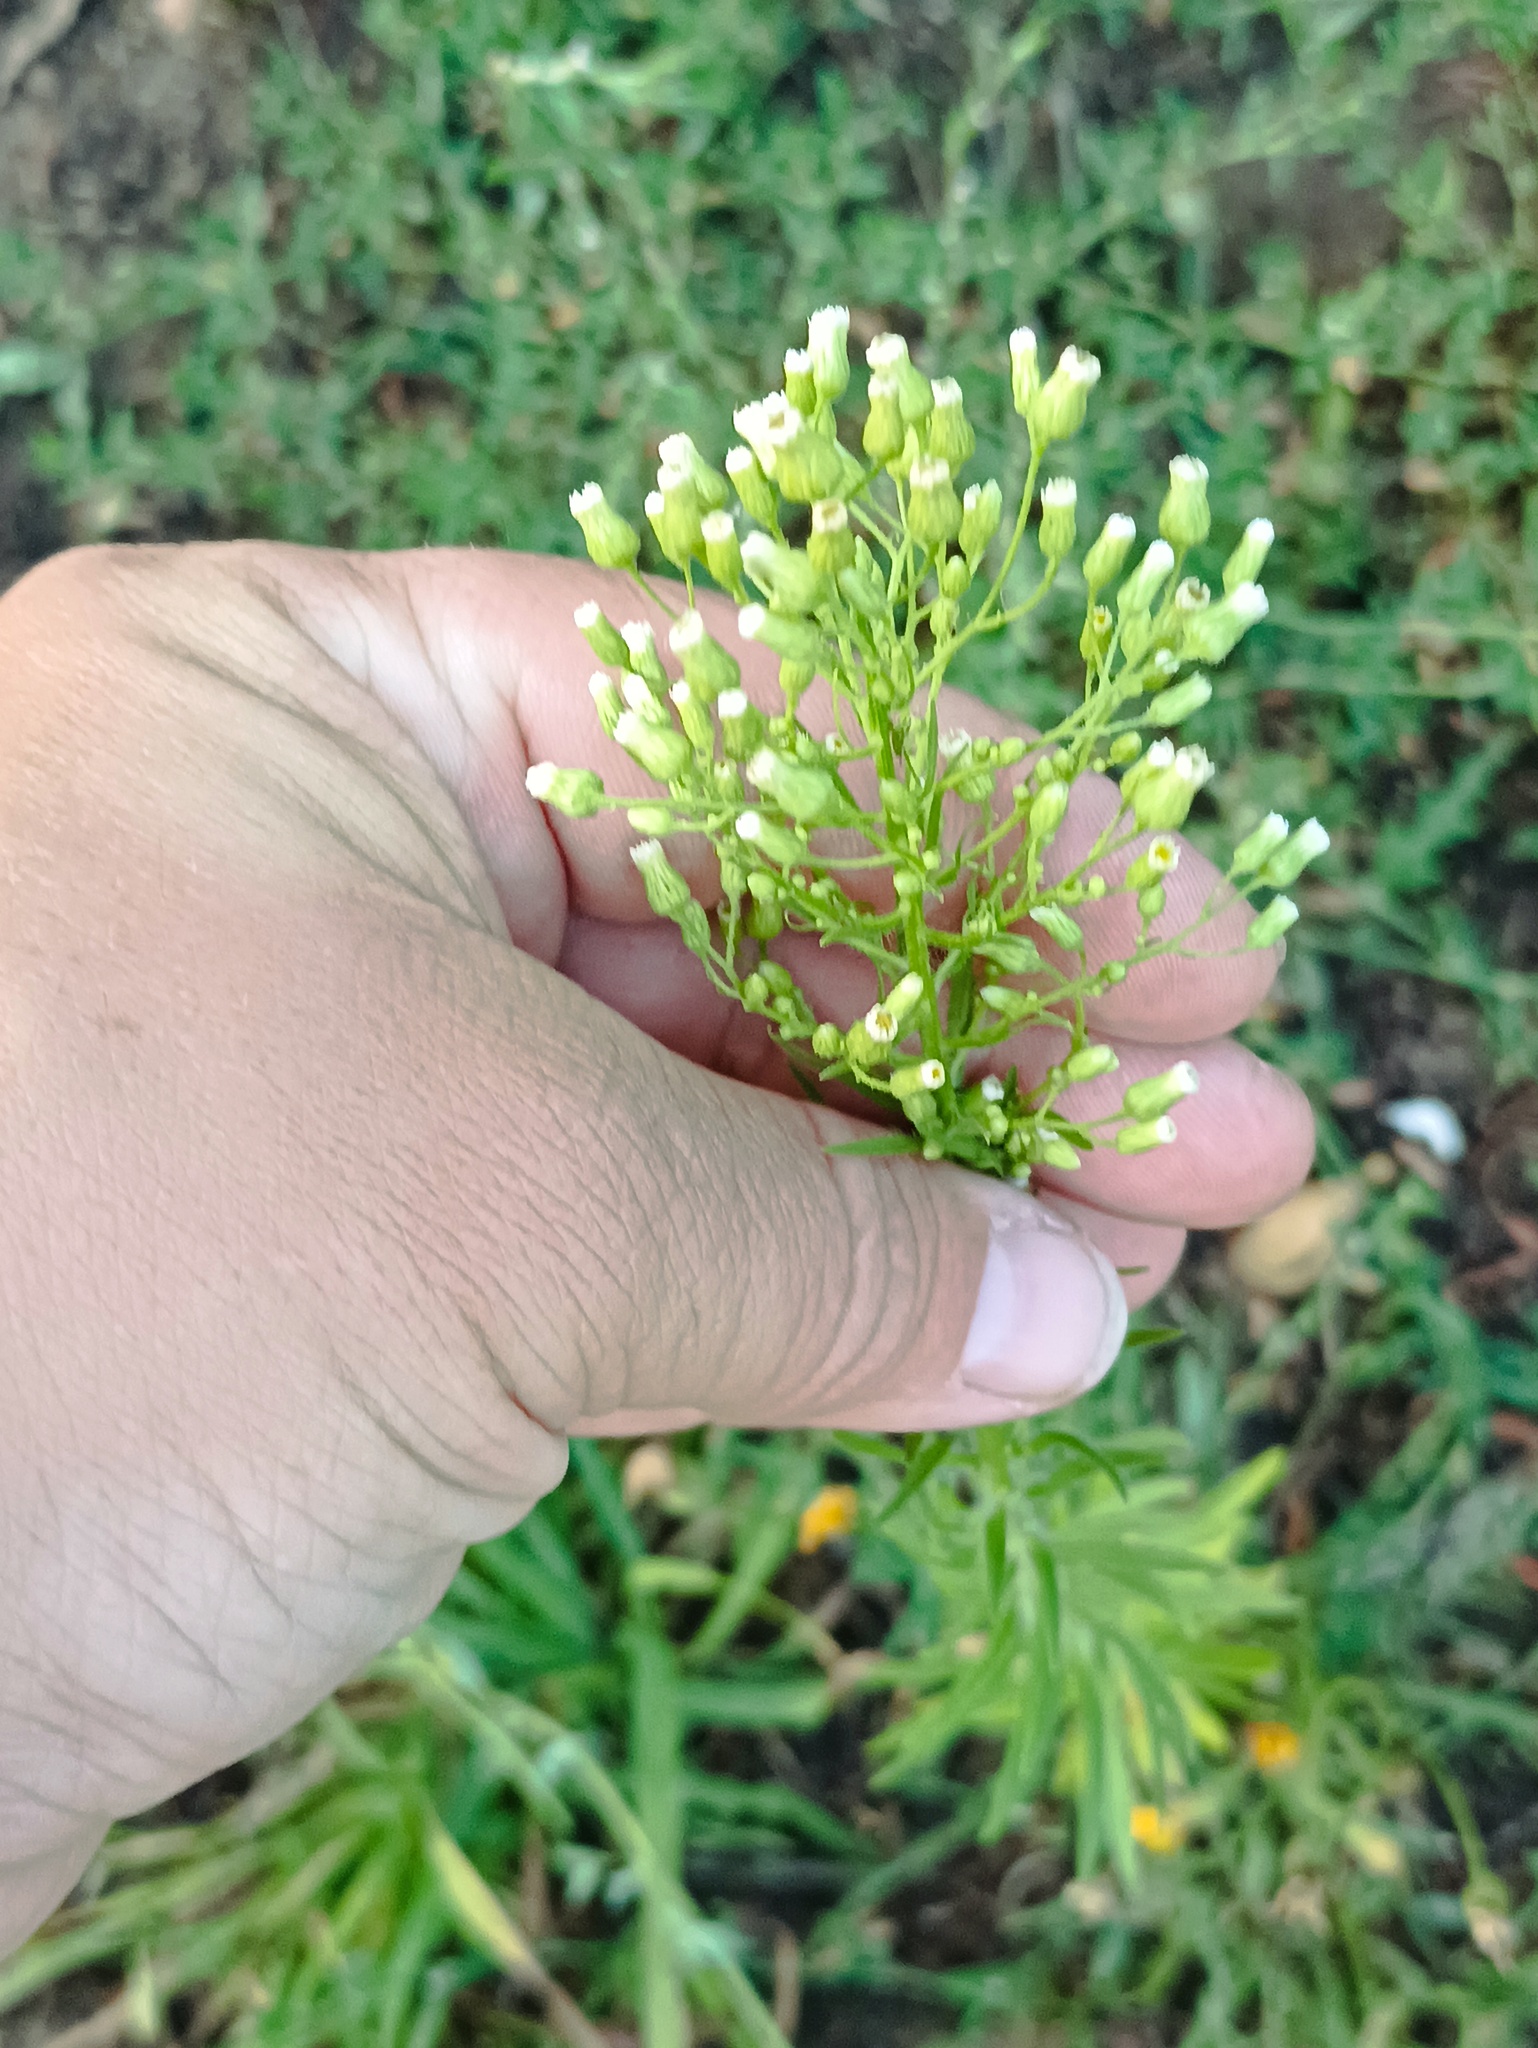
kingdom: Plantae
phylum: Tracheophyta
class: Magnoliopsida
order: Asterales
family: Asteraceae
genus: Erigeron
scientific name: Erigeron canadensis
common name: Canadian fleabane
